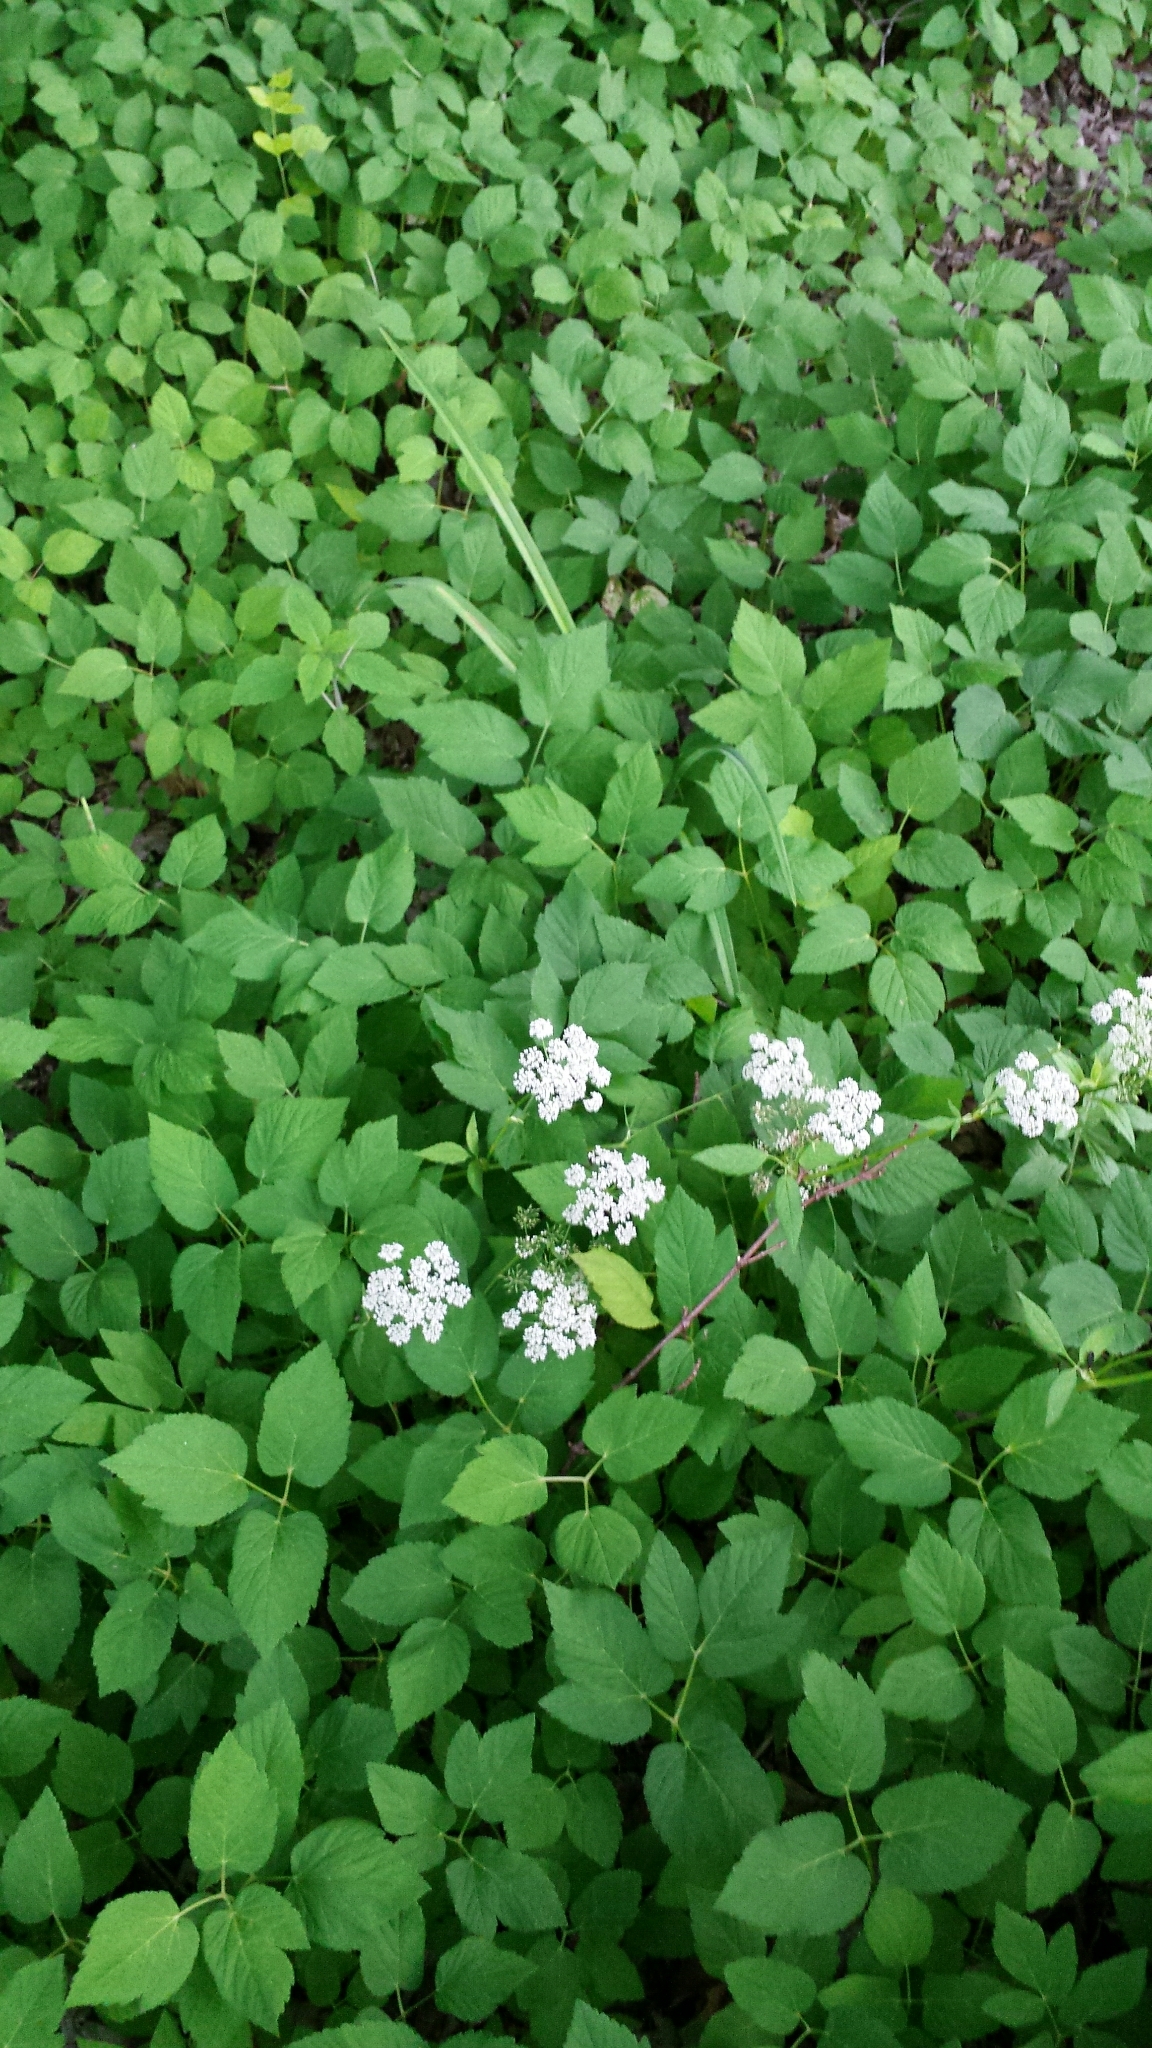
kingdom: Plantae
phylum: Tracheophyta
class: Magnoliopsida
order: Apiales
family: Apiaceae
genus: Aegopodium
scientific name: Aegopodium podagraria
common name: Ground-elder
